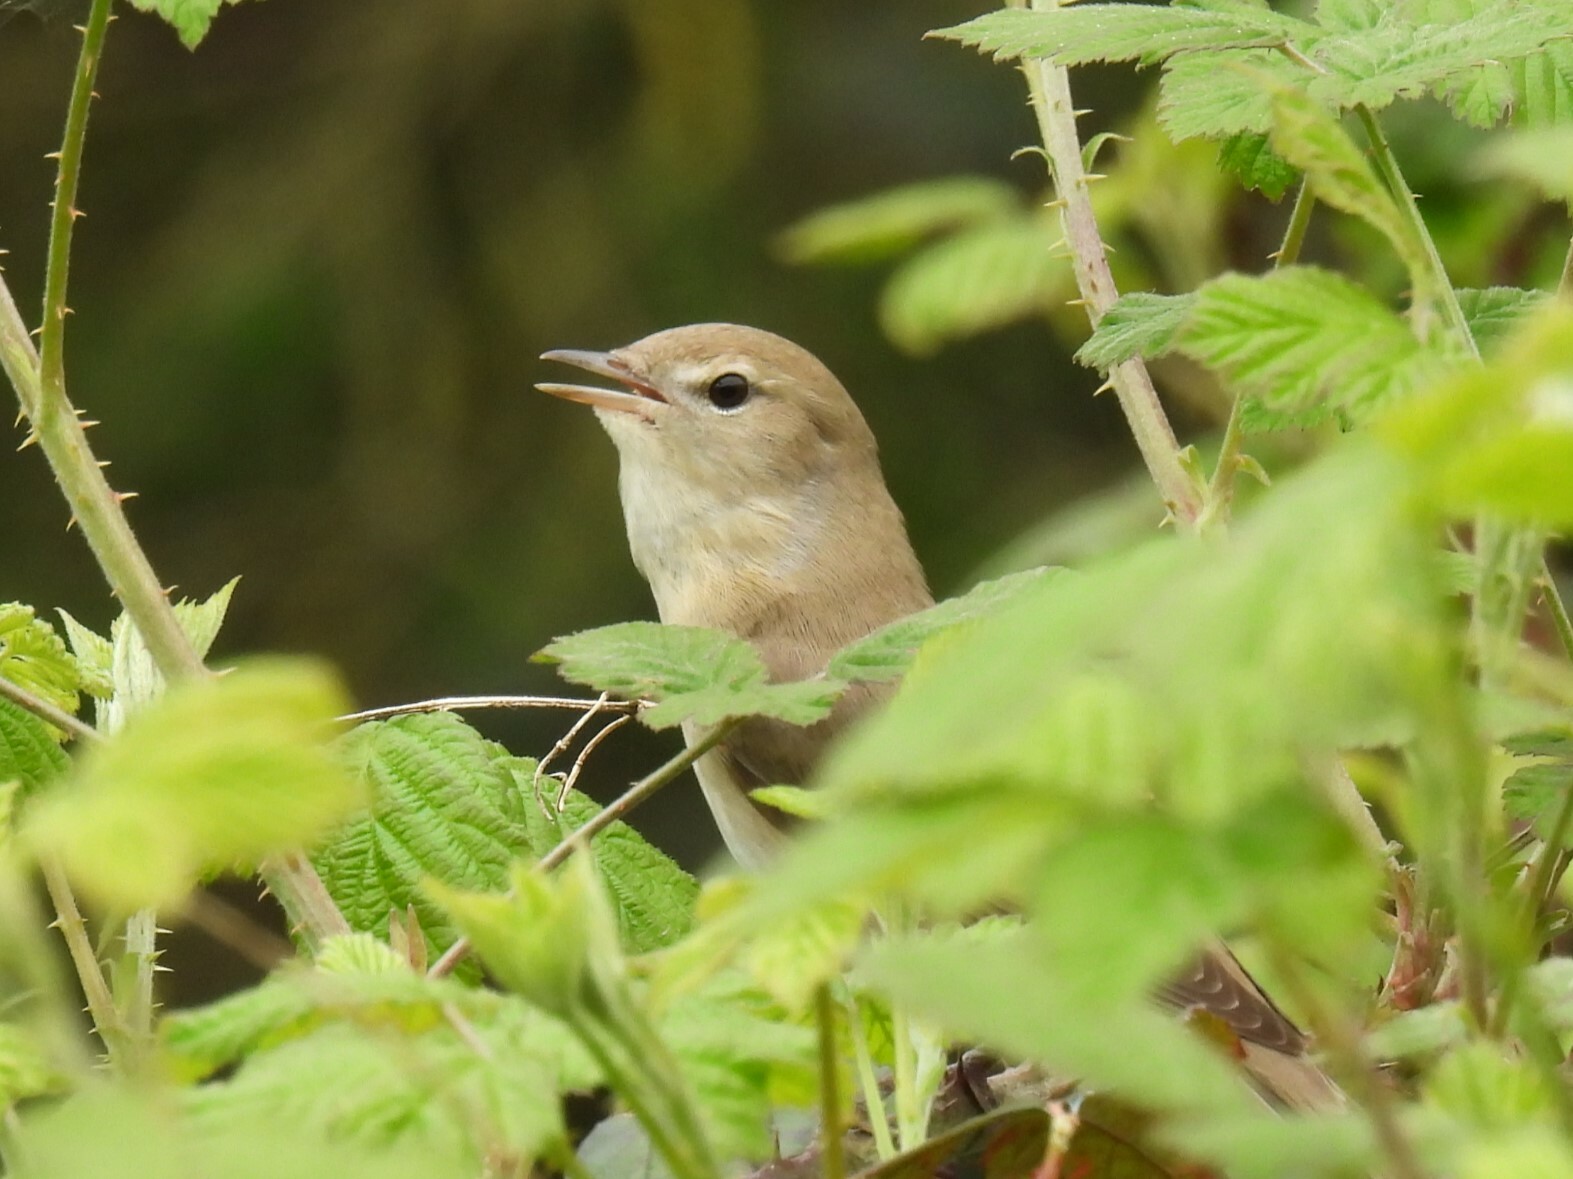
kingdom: Animalia
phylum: Chordata
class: Aves
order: Passeriformes
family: Sylviidae
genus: Sylvia
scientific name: Sylvia borin
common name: Garden warbler
